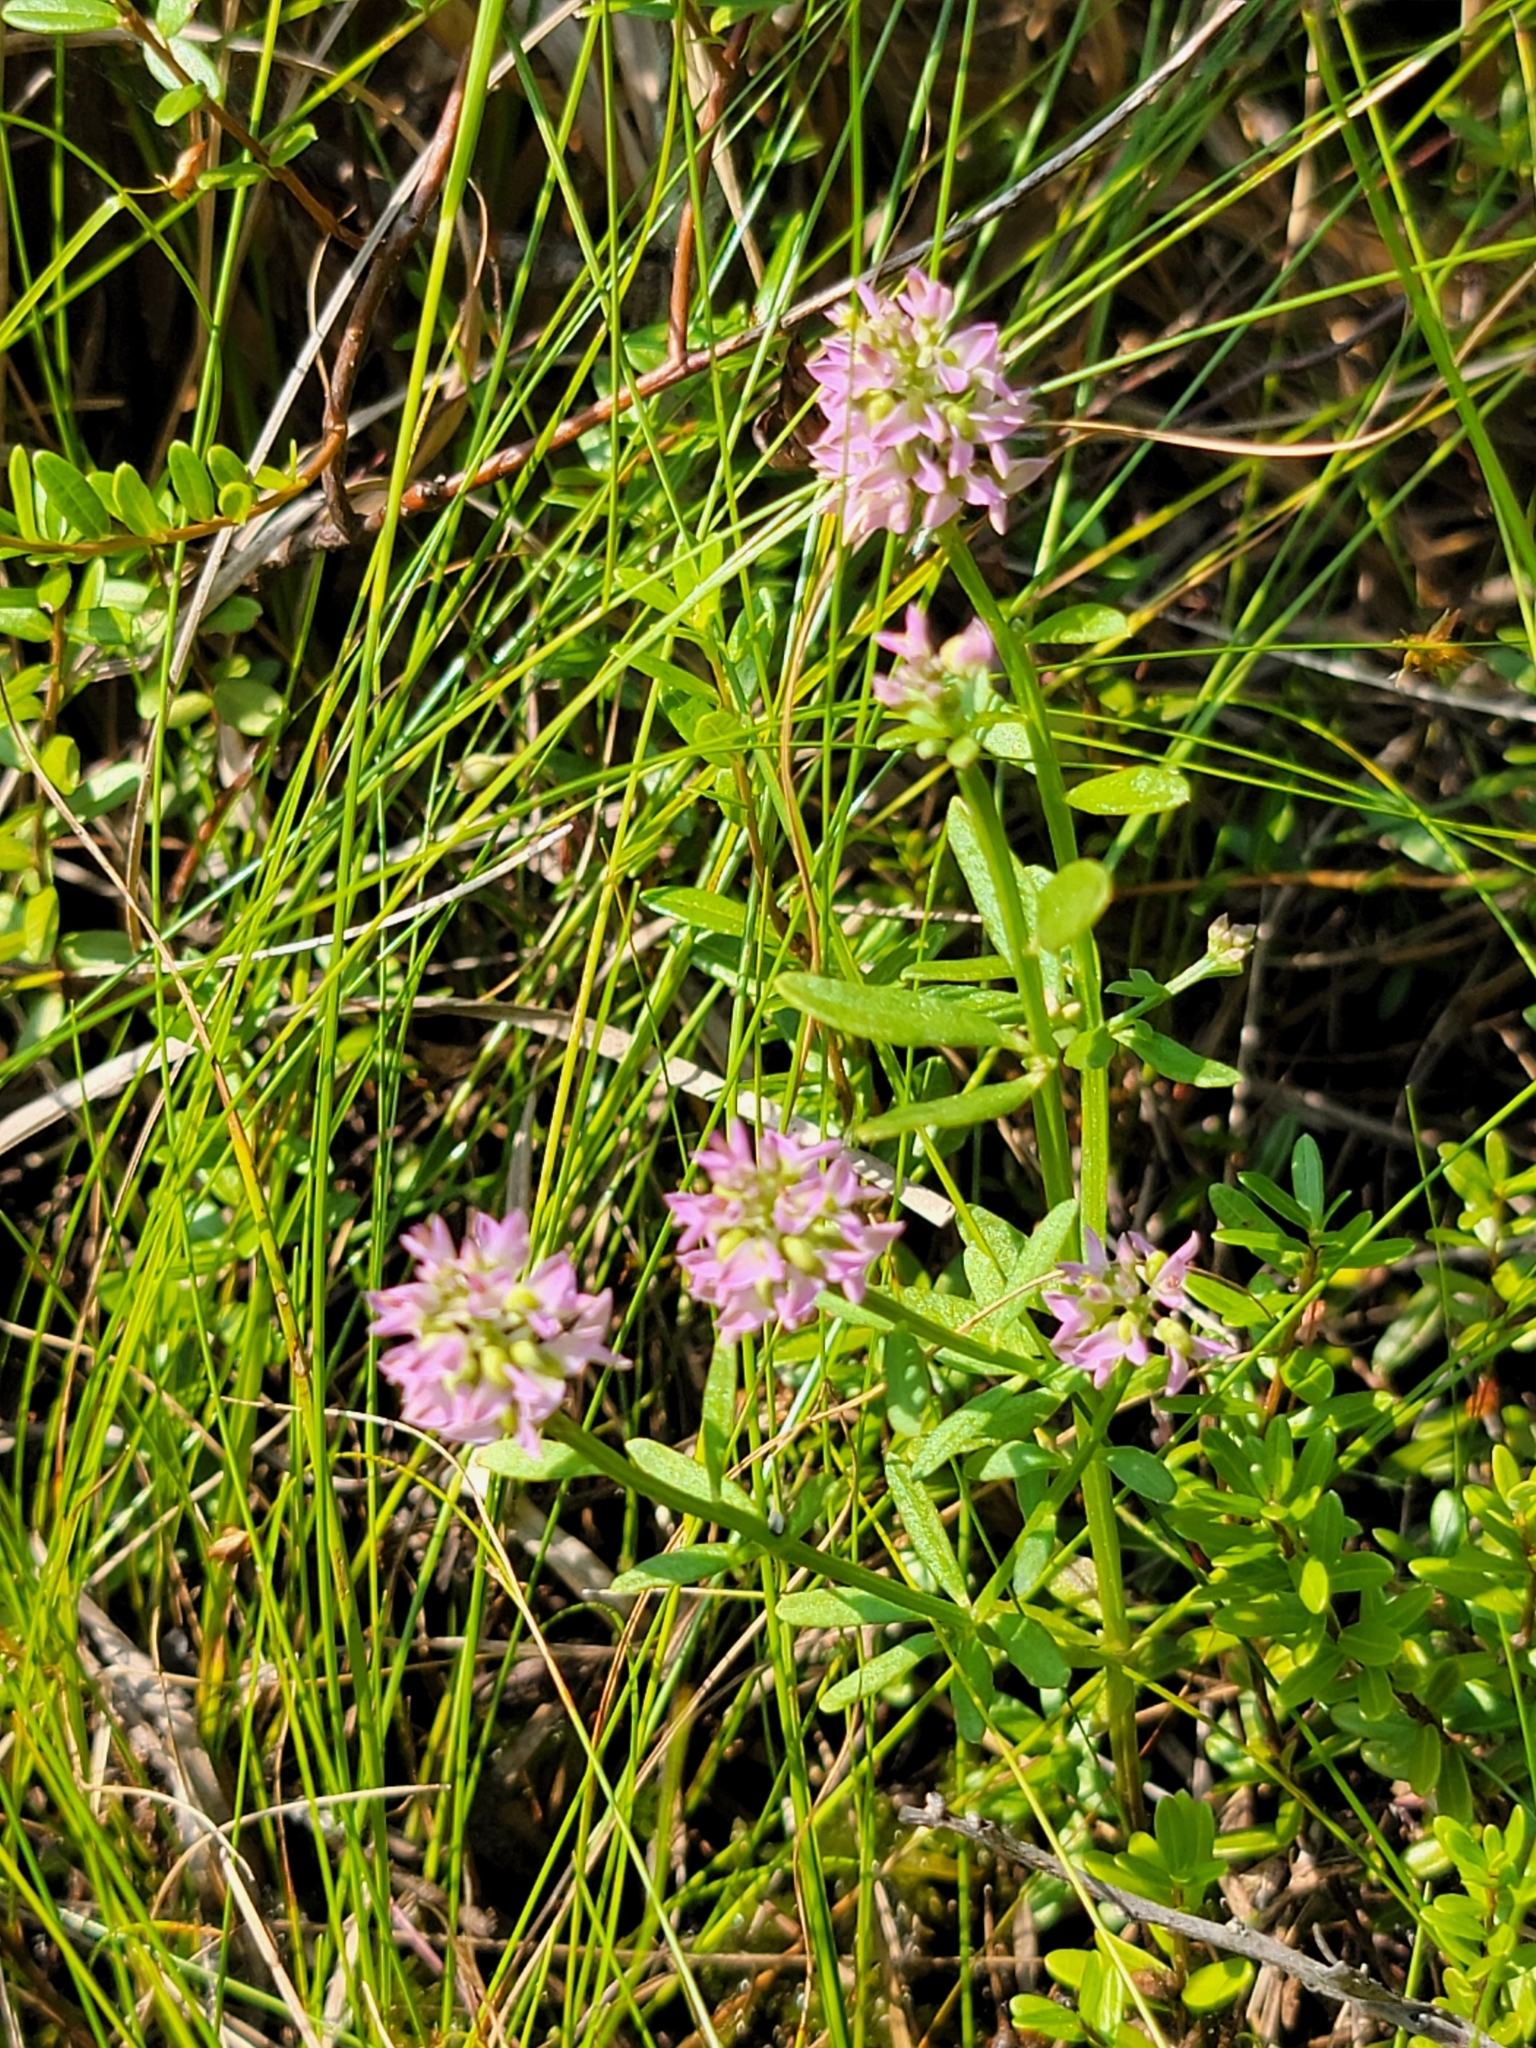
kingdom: Plantae
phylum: Tracheophyta
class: Magnoliopsida
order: Fabales
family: Polygalaceae
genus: Polygala
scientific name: Polygala brevifolia
